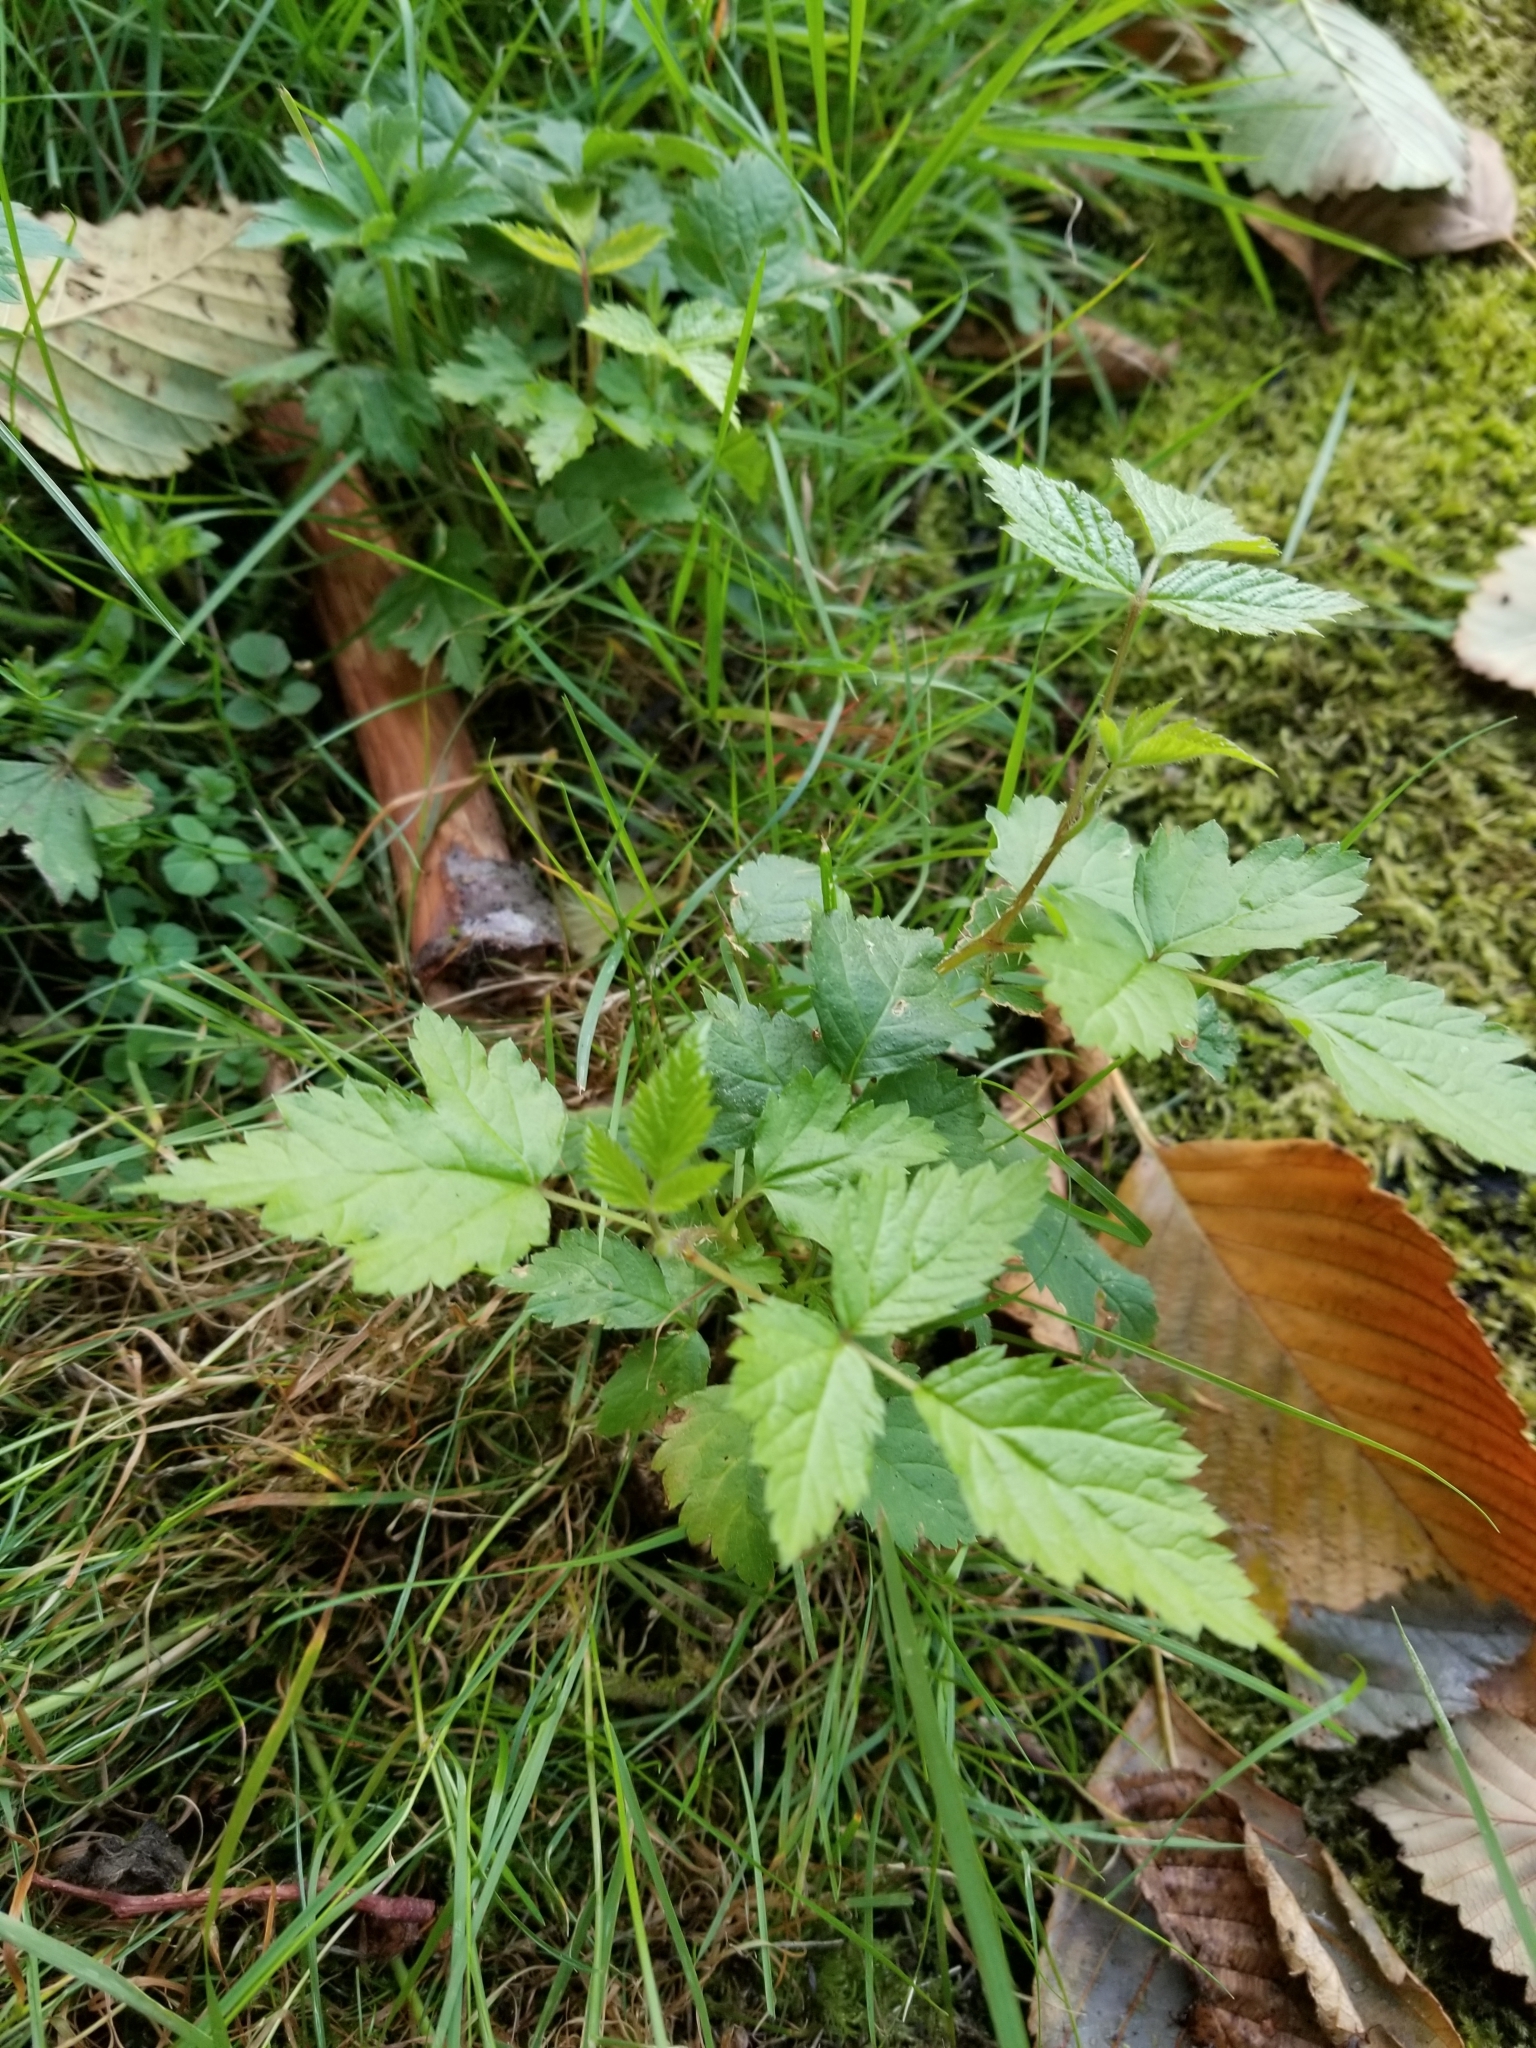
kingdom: Plantae
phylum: Tracheophyta
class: Magnoliopsida
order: Rosales
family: Rosaceae
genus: Rubus
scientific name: Rubus spectabilis
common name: Salmonberry
